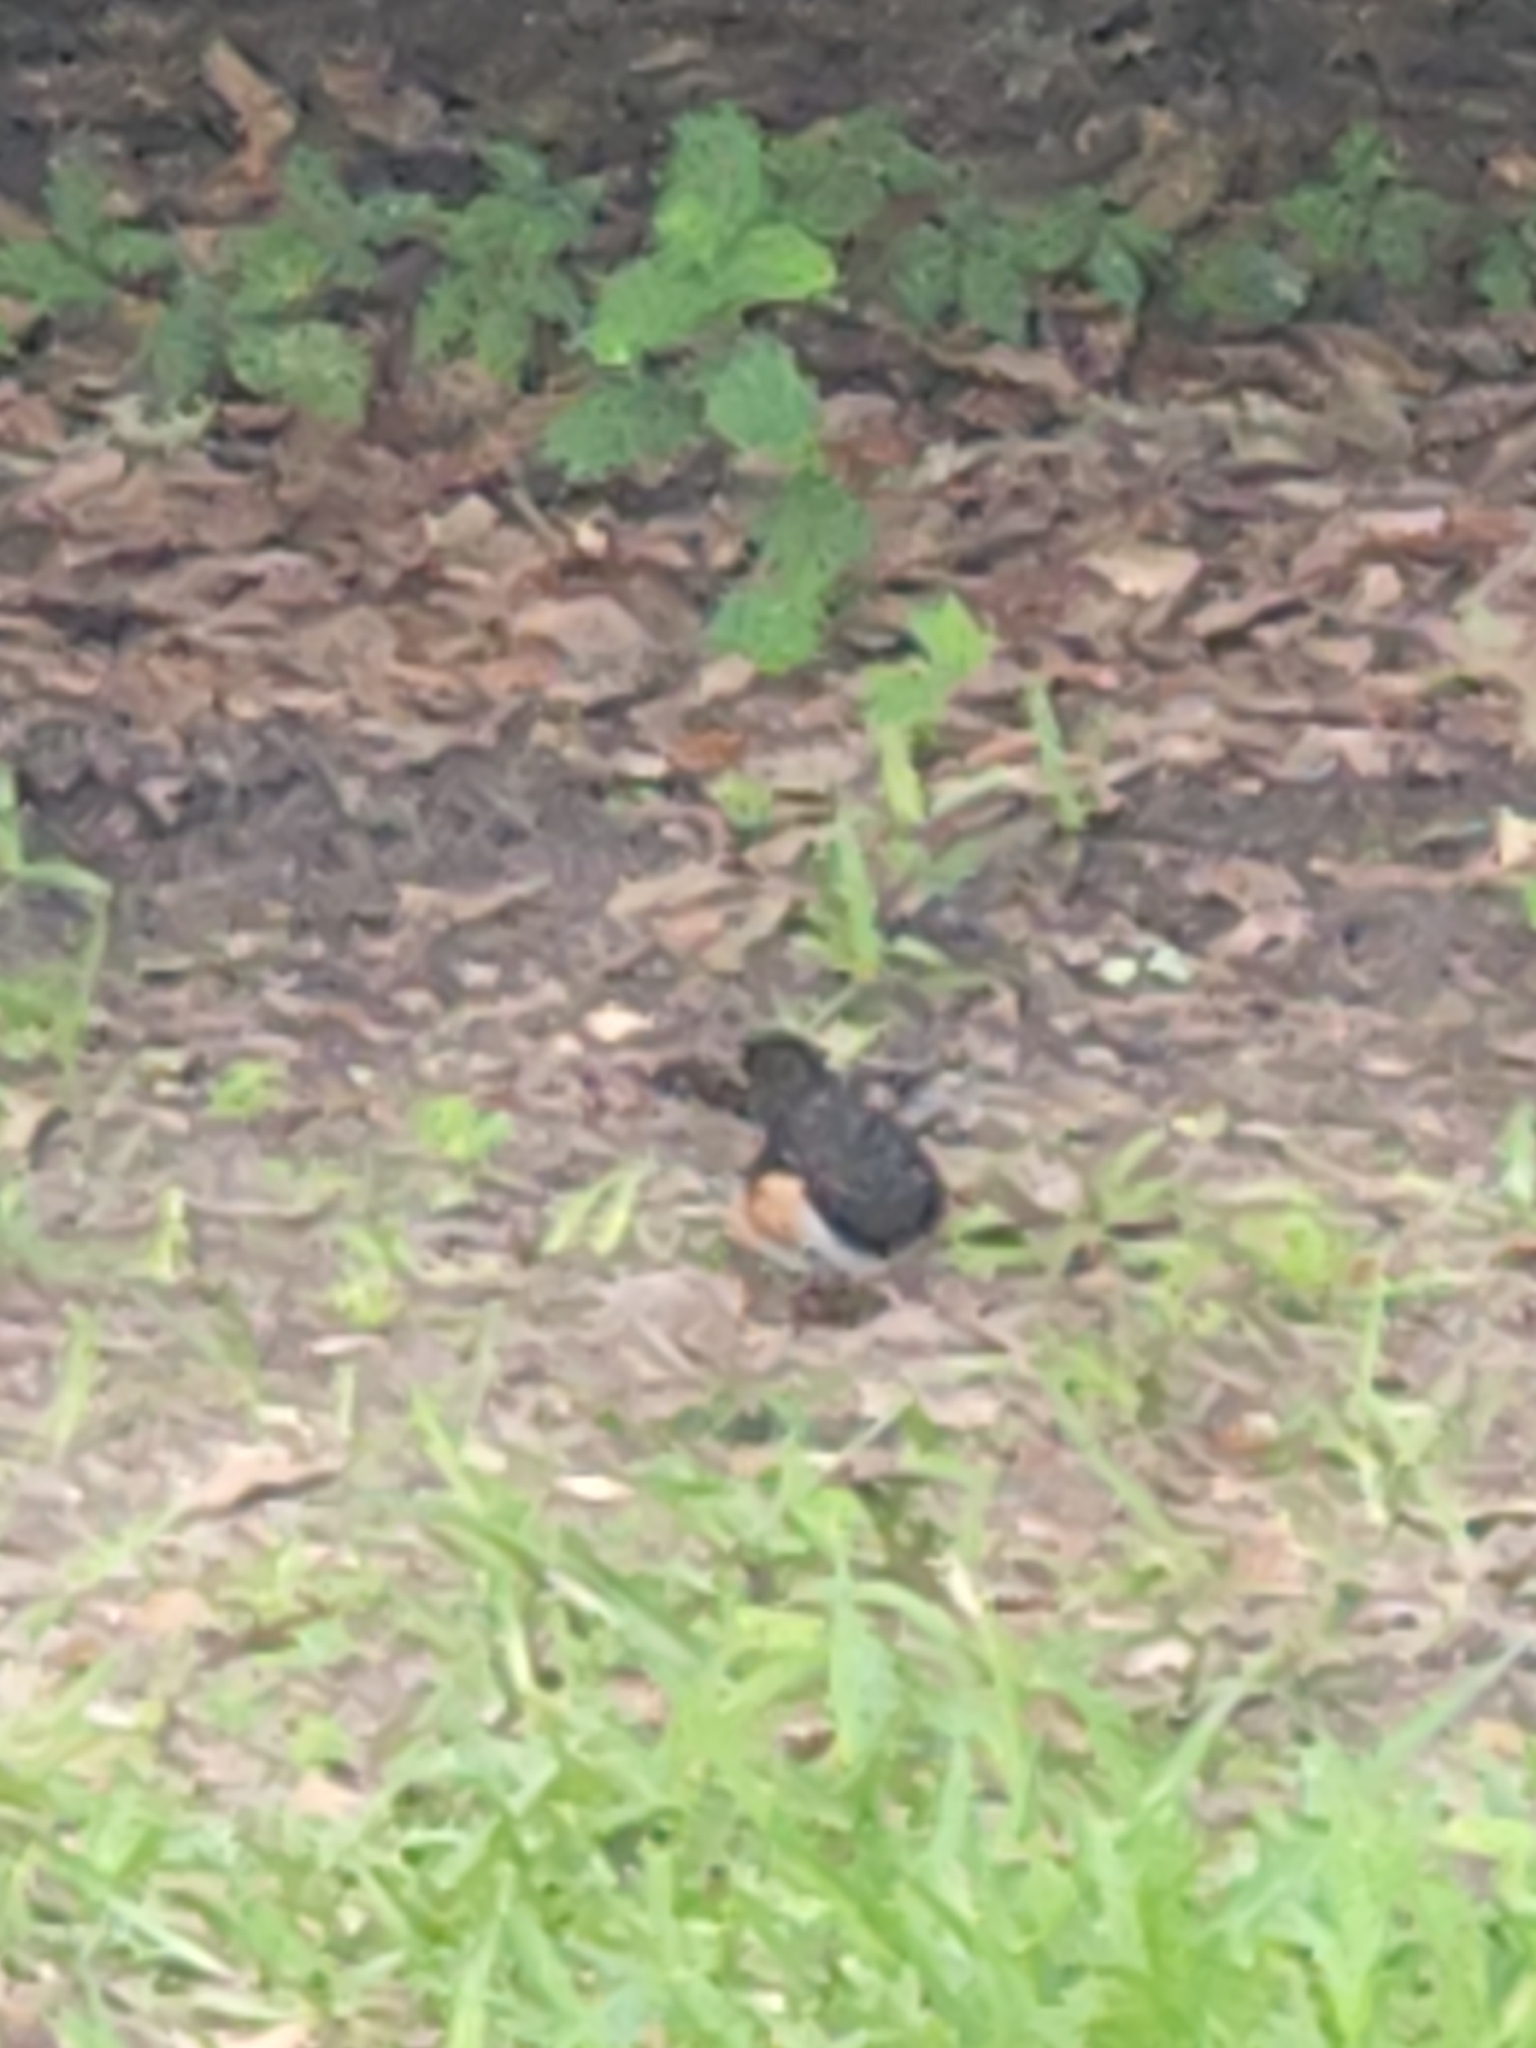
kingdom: Animalia
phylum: Chordata
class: Aves
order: Passeriformes
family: Passerellidae
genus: Pipilo
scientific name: Pipilo erythrophthalmus
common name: Eastern towhee
